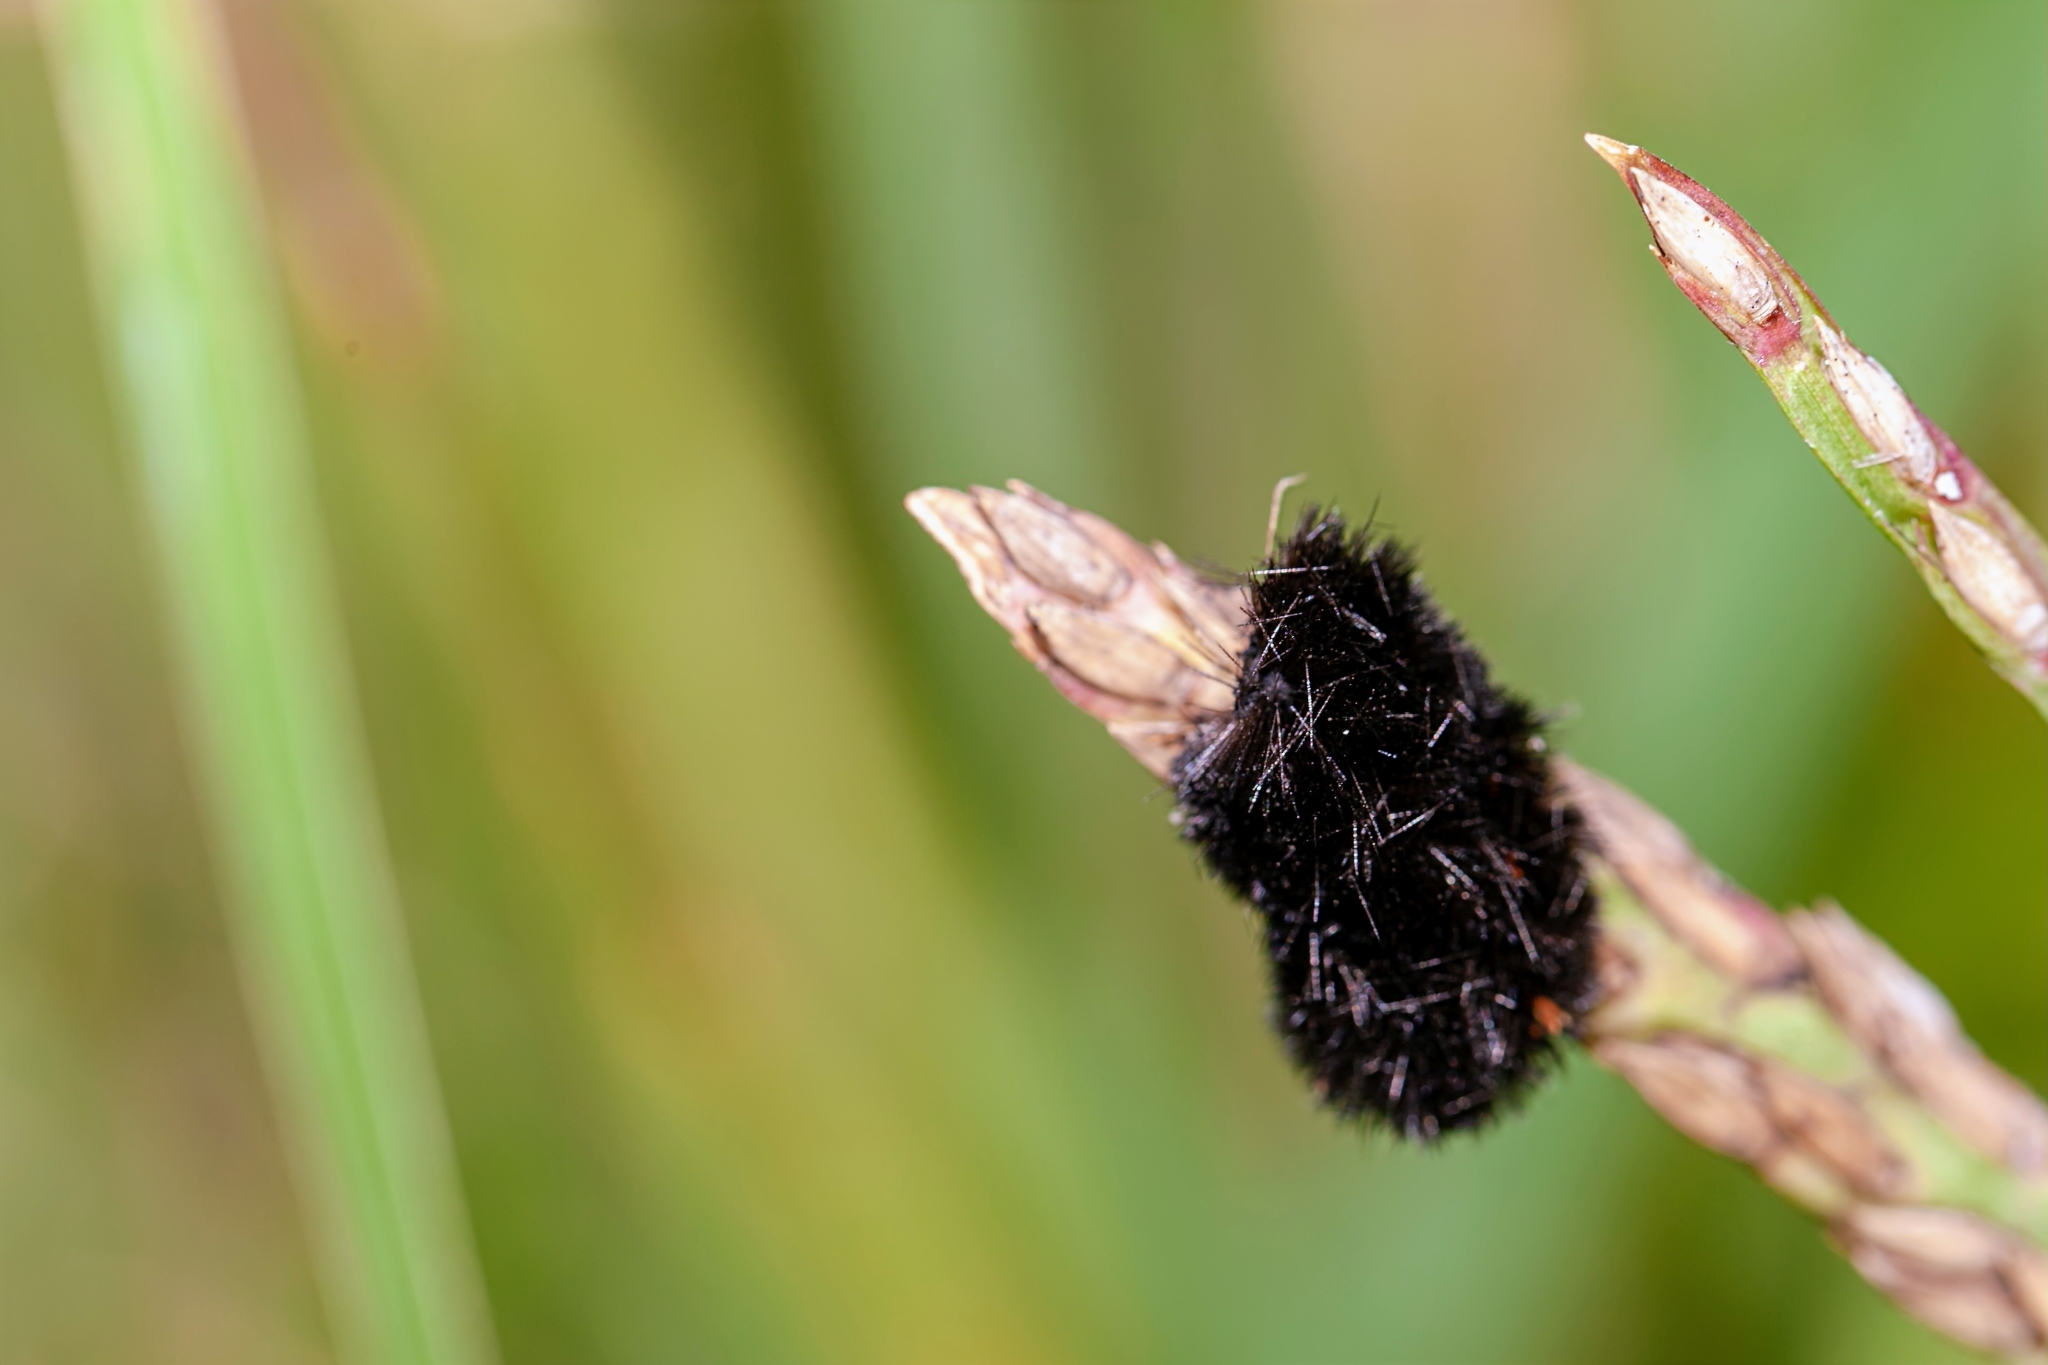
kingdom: Animalia
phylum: Arthropoda
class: Insecta
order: Lepidoptera
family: Erebidae
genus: Spilosoma
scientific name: Spilosoma congrua
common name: Agreeable tiger moth
